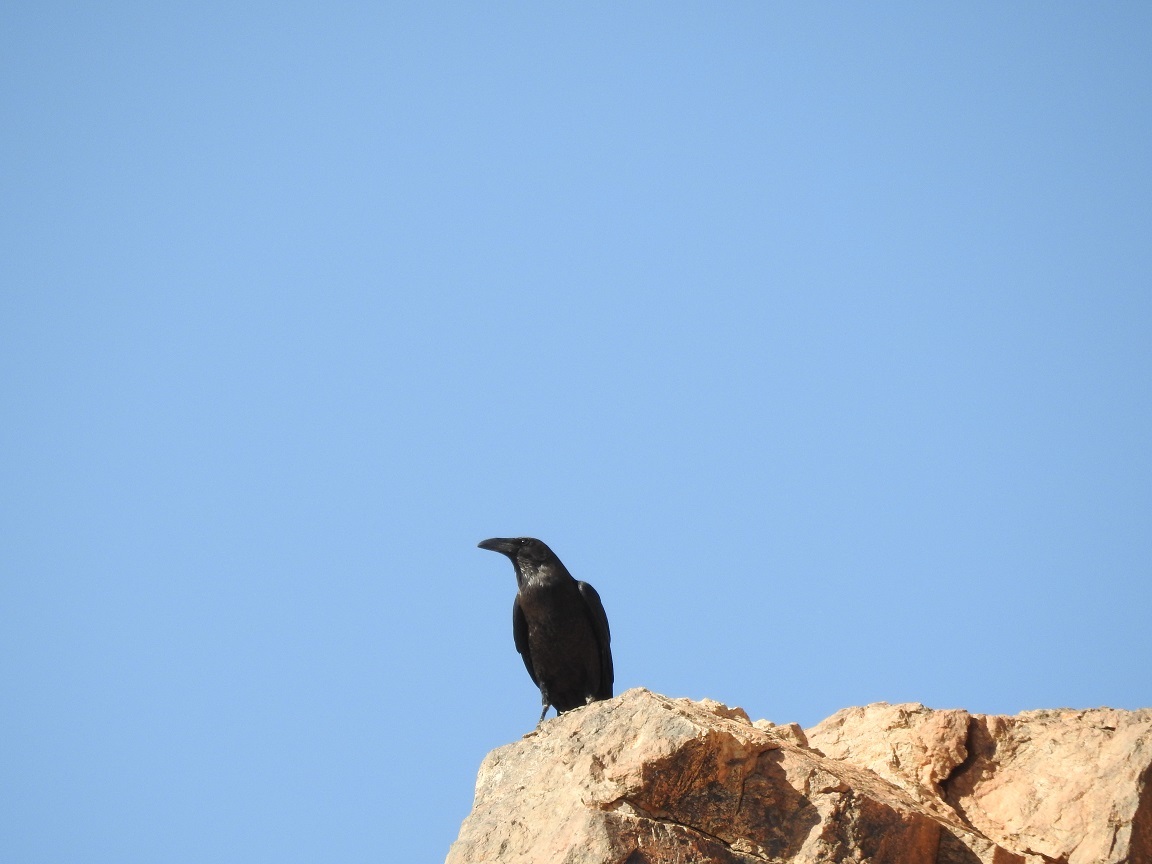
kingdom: Animalia
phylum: Chordata
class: Aves
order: Passeriformes
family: Corvidae
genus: Corvus
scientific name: Corvus ruficollis
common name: Brown-necked raven
